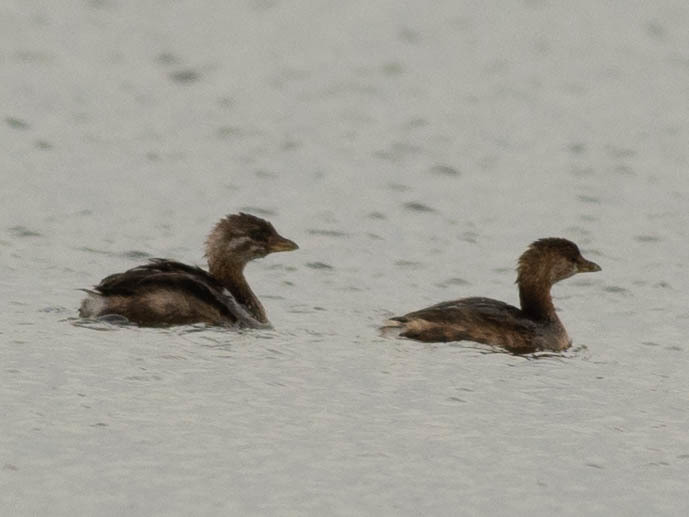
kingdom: Animalia
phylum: Chordata
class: Aves
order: Podicipediformes
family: Podicipedidae
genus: Podilymbus
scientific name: Podilymbus podiceps
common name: Pied-billed grebe
